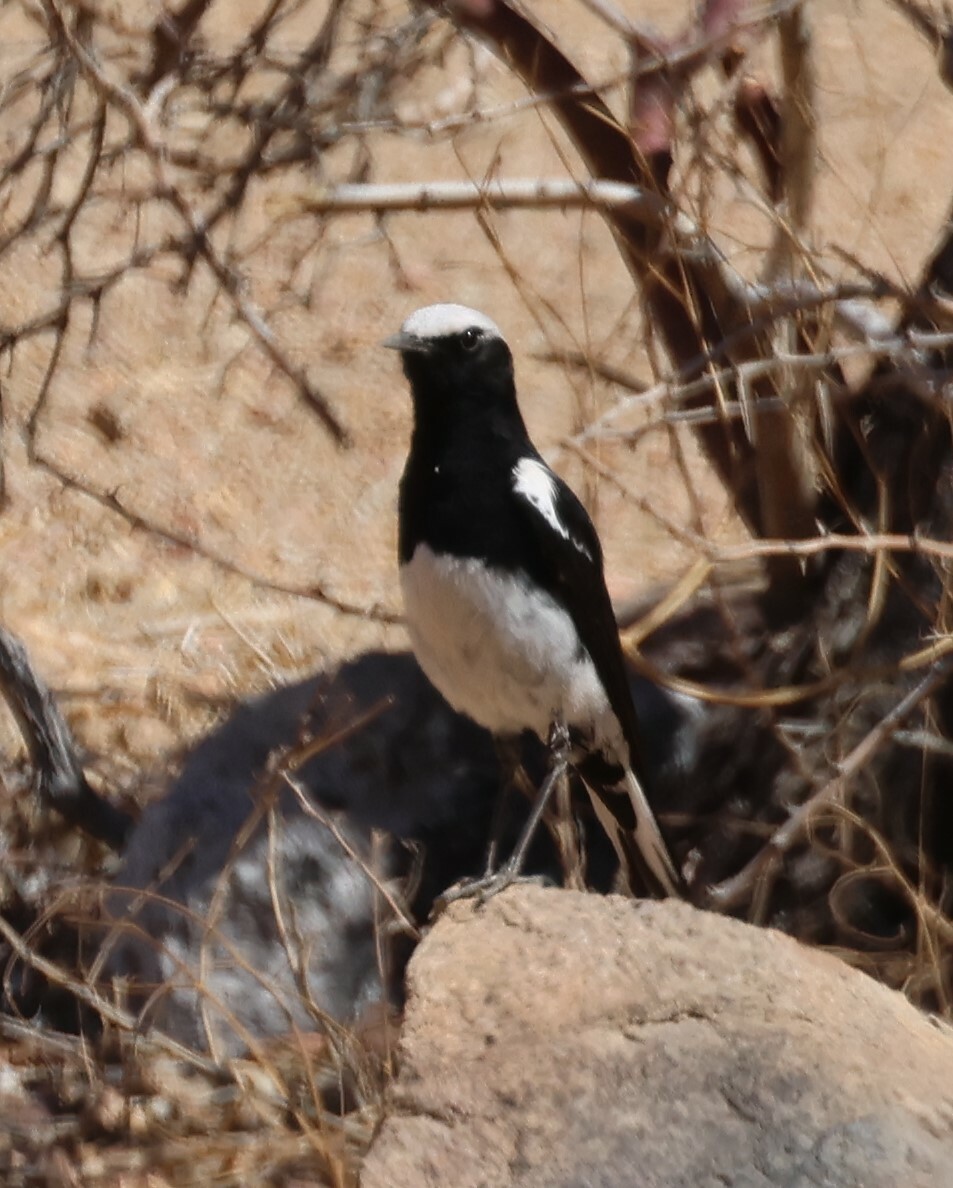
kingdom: Animalia
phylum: Chordata
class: Aves
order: Passeriformes
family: Muscicapidae
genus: Oenanthe
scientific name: Oenanthe monticola
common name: Mountain wheatear
